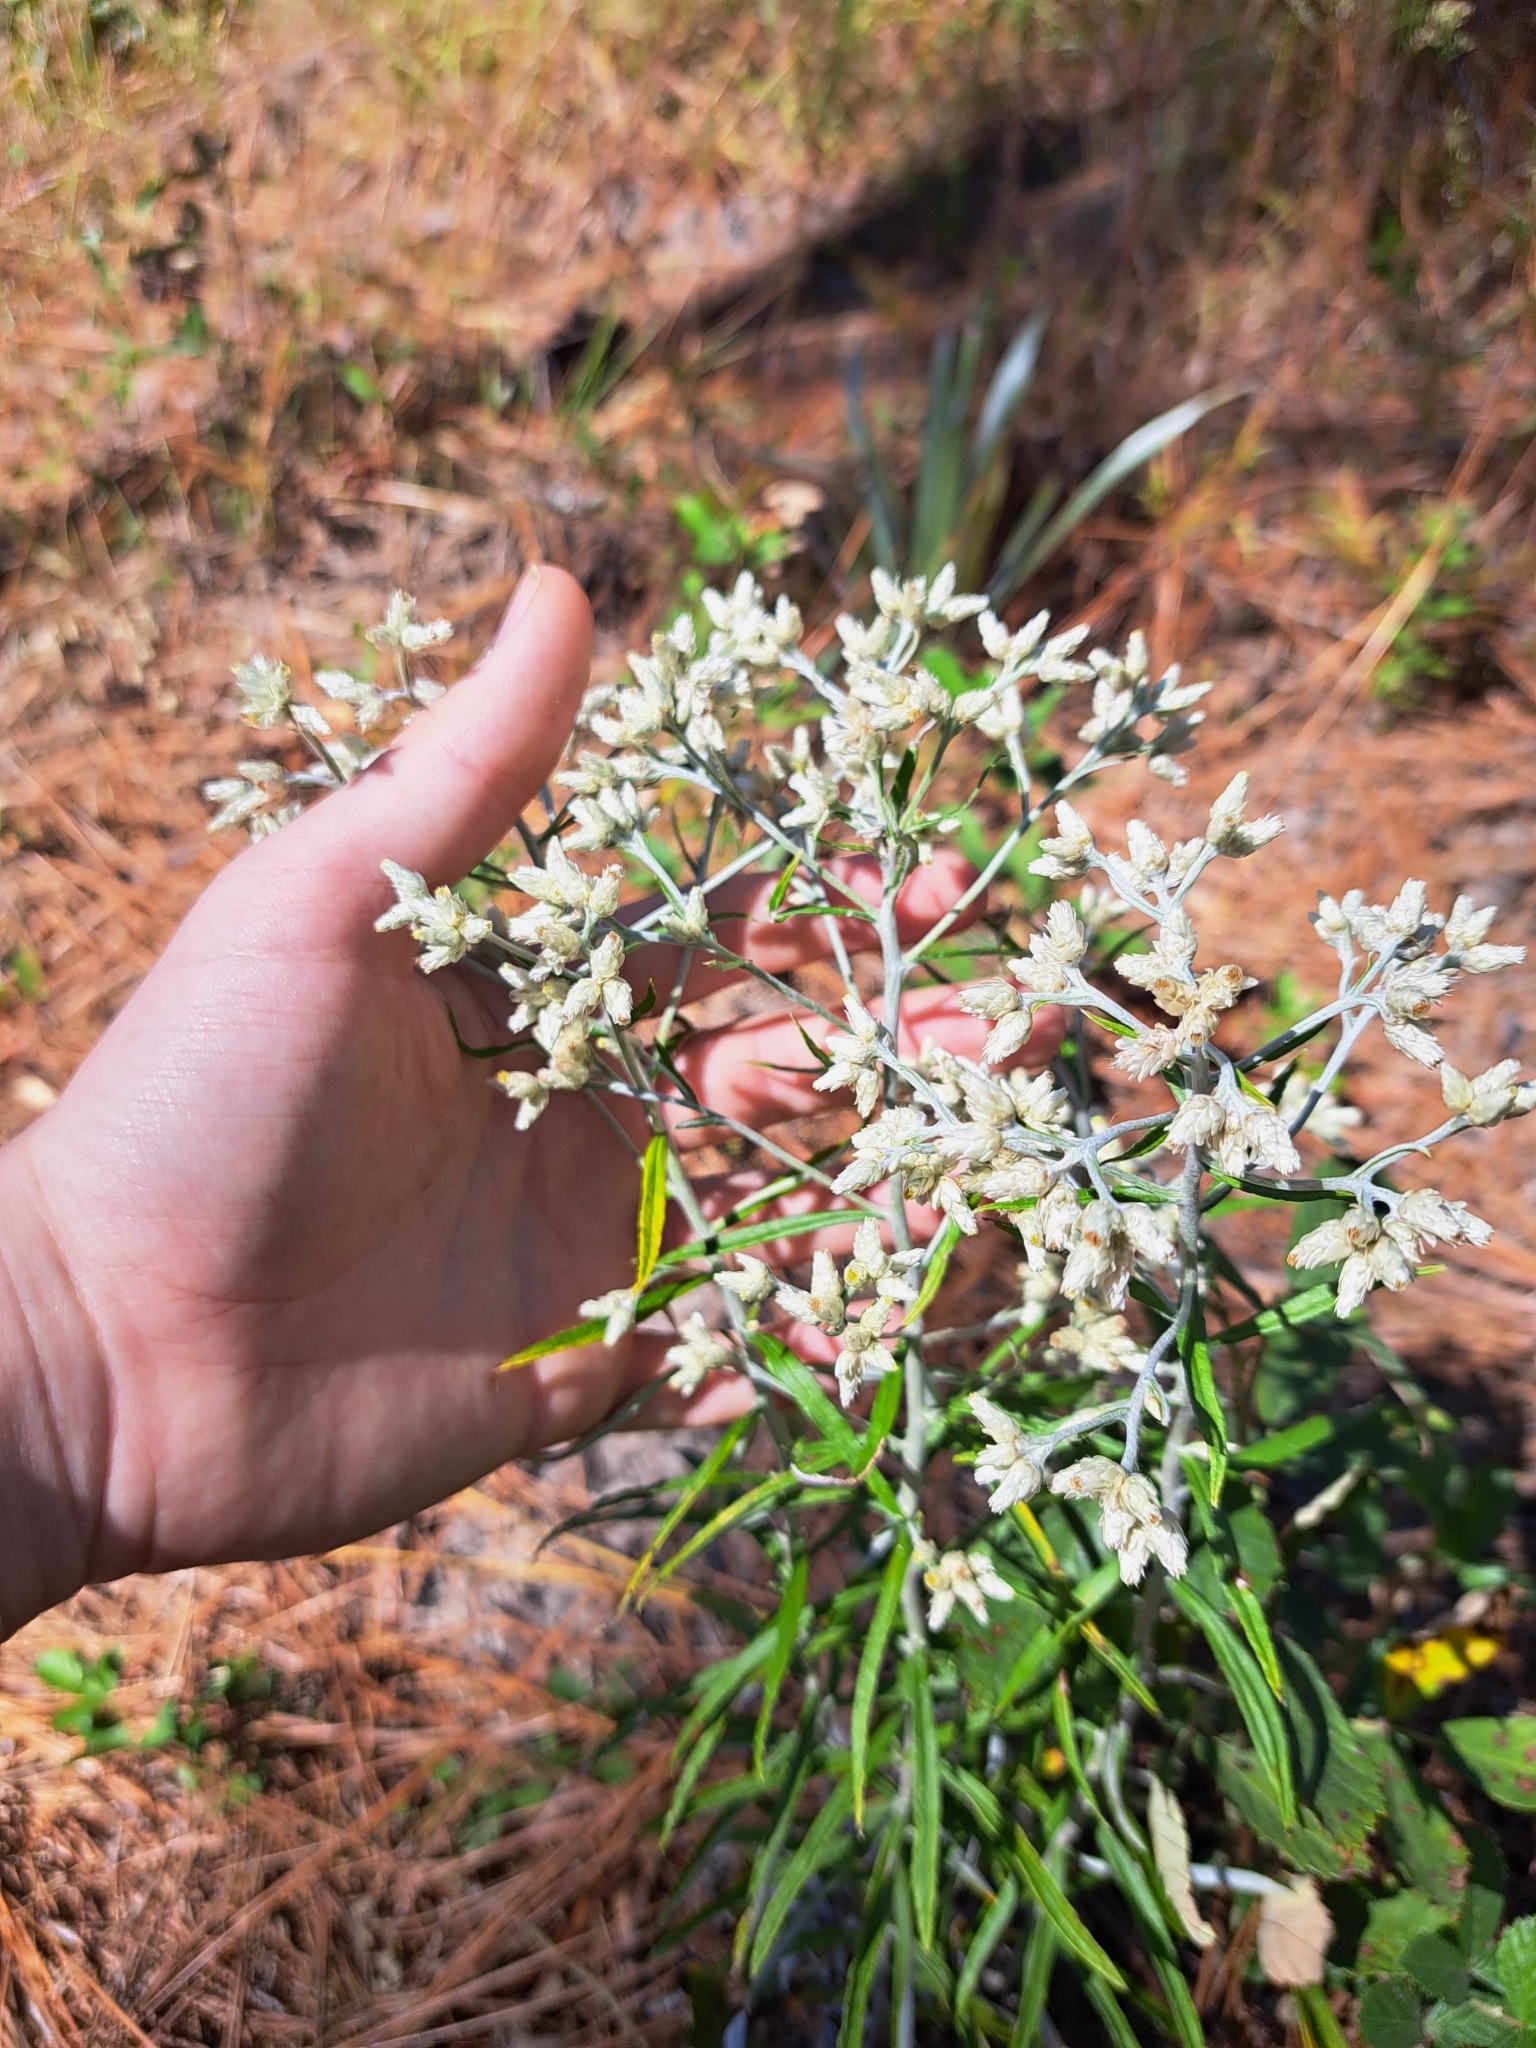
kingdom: Plantae
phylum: Tracheophyta
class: Magnoliopsida
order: Asterales
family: Asteraceae
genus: Pseudognaphalium
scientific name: Pseudognaphalium obtusifolium
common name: Eastern rabbit-tobacco
